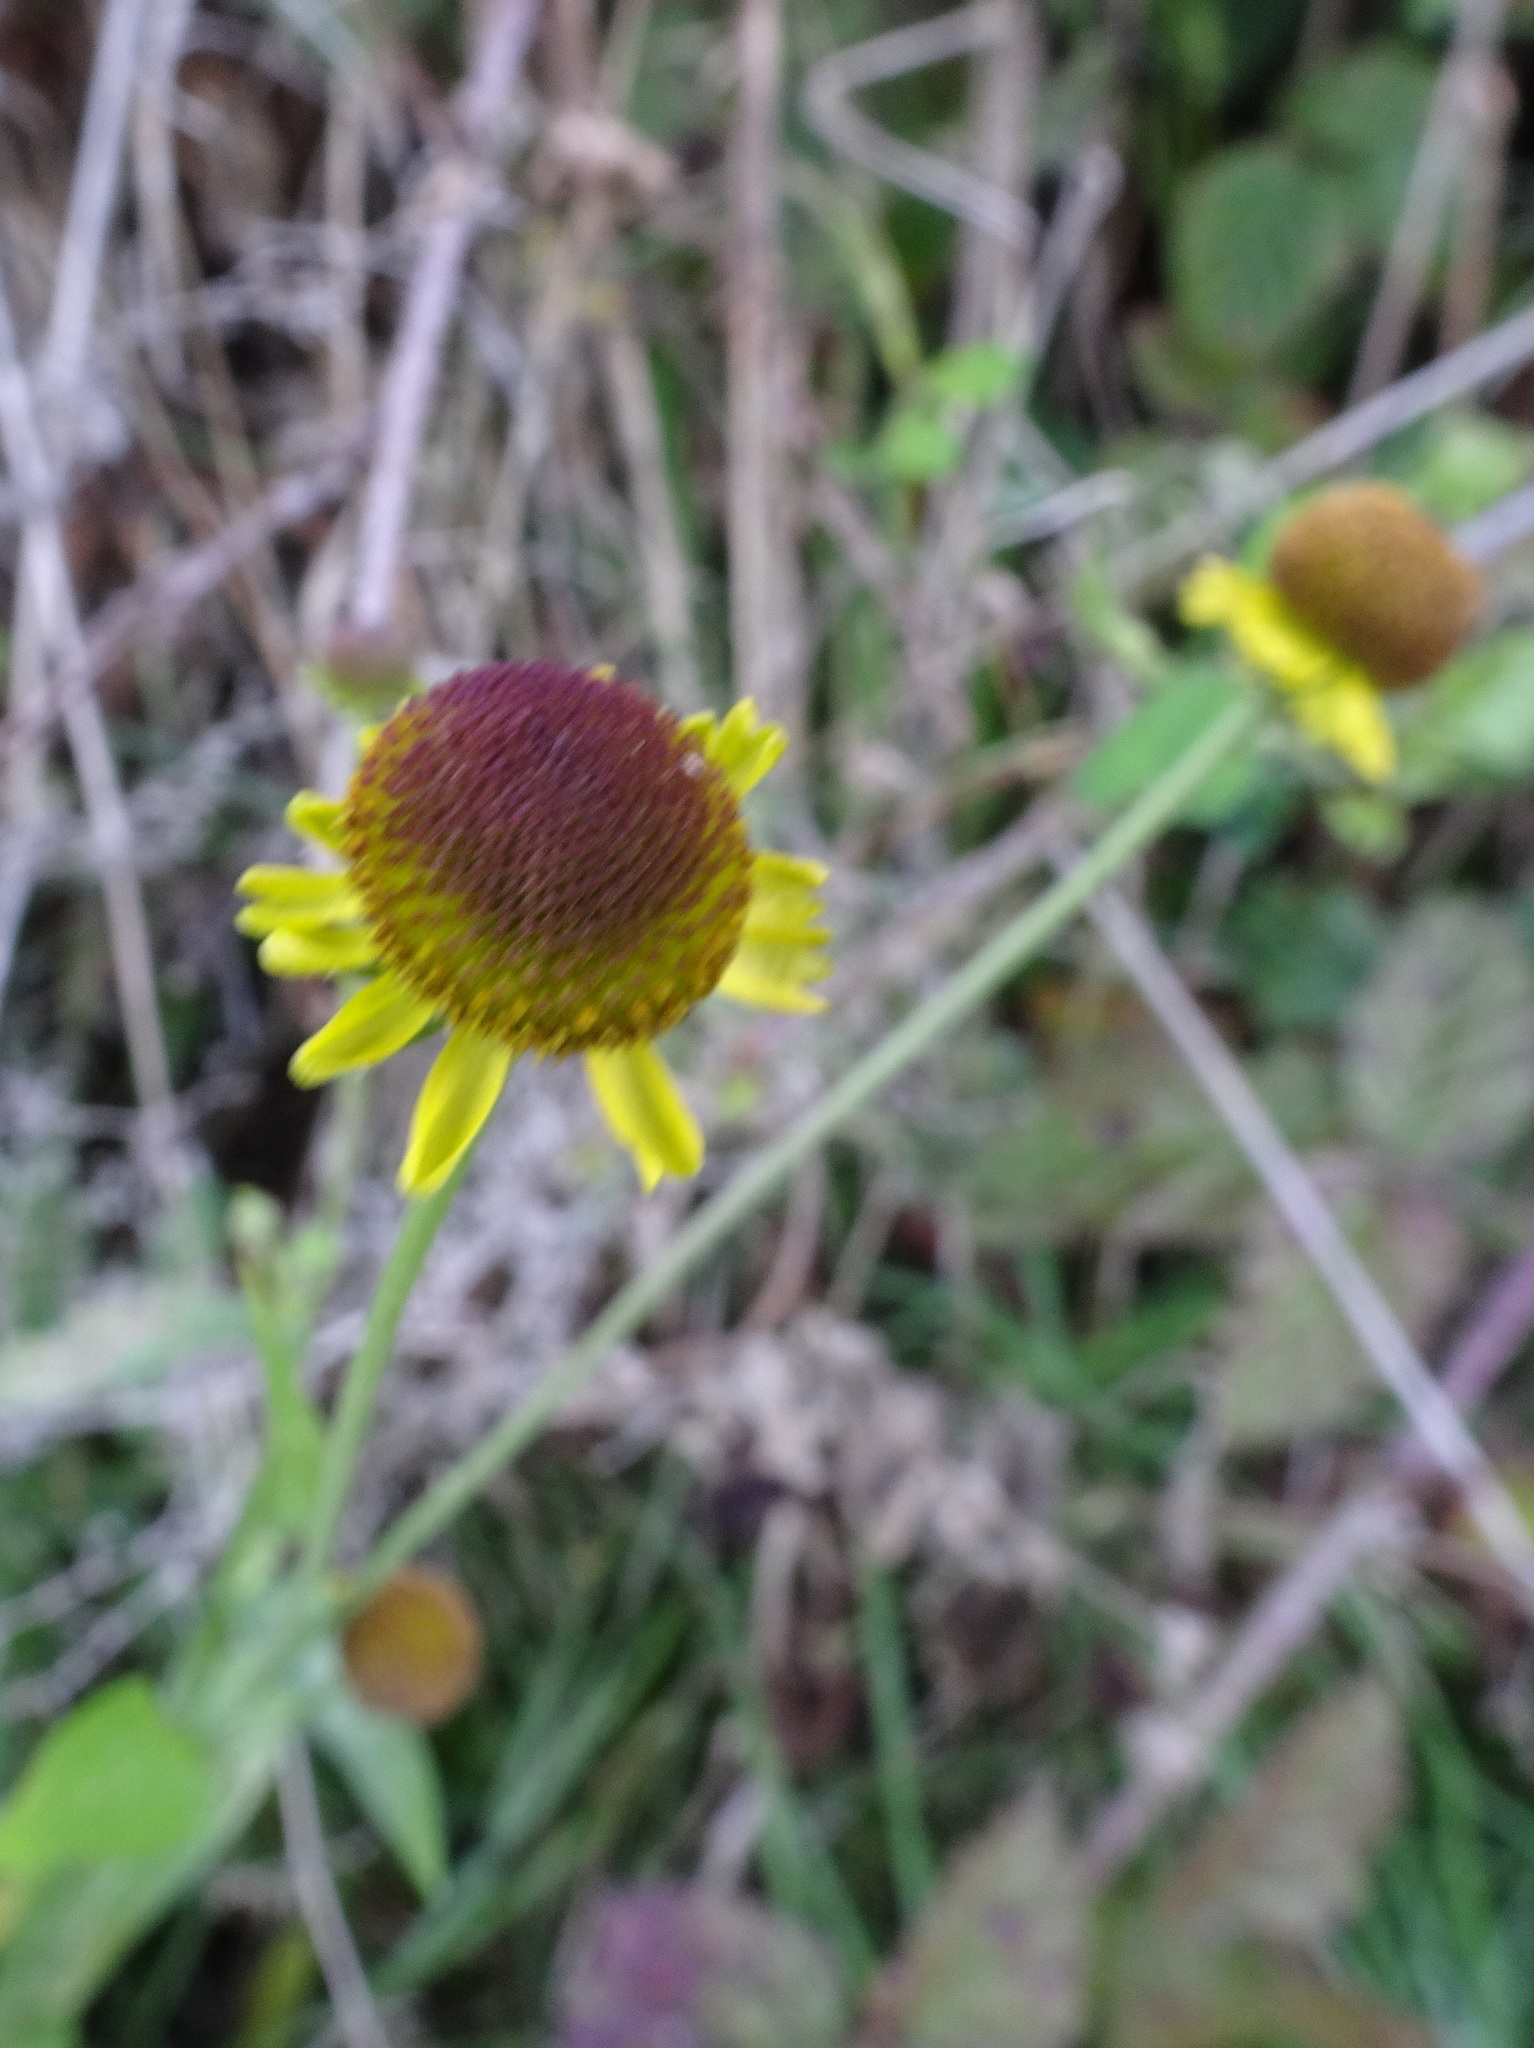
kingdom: Plantae
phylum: Tracheophyta
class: Magnoliopsida
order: Asterales
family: Asteraceae
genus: Helenium
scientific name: Helenium puberulum
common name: Sneezewort
